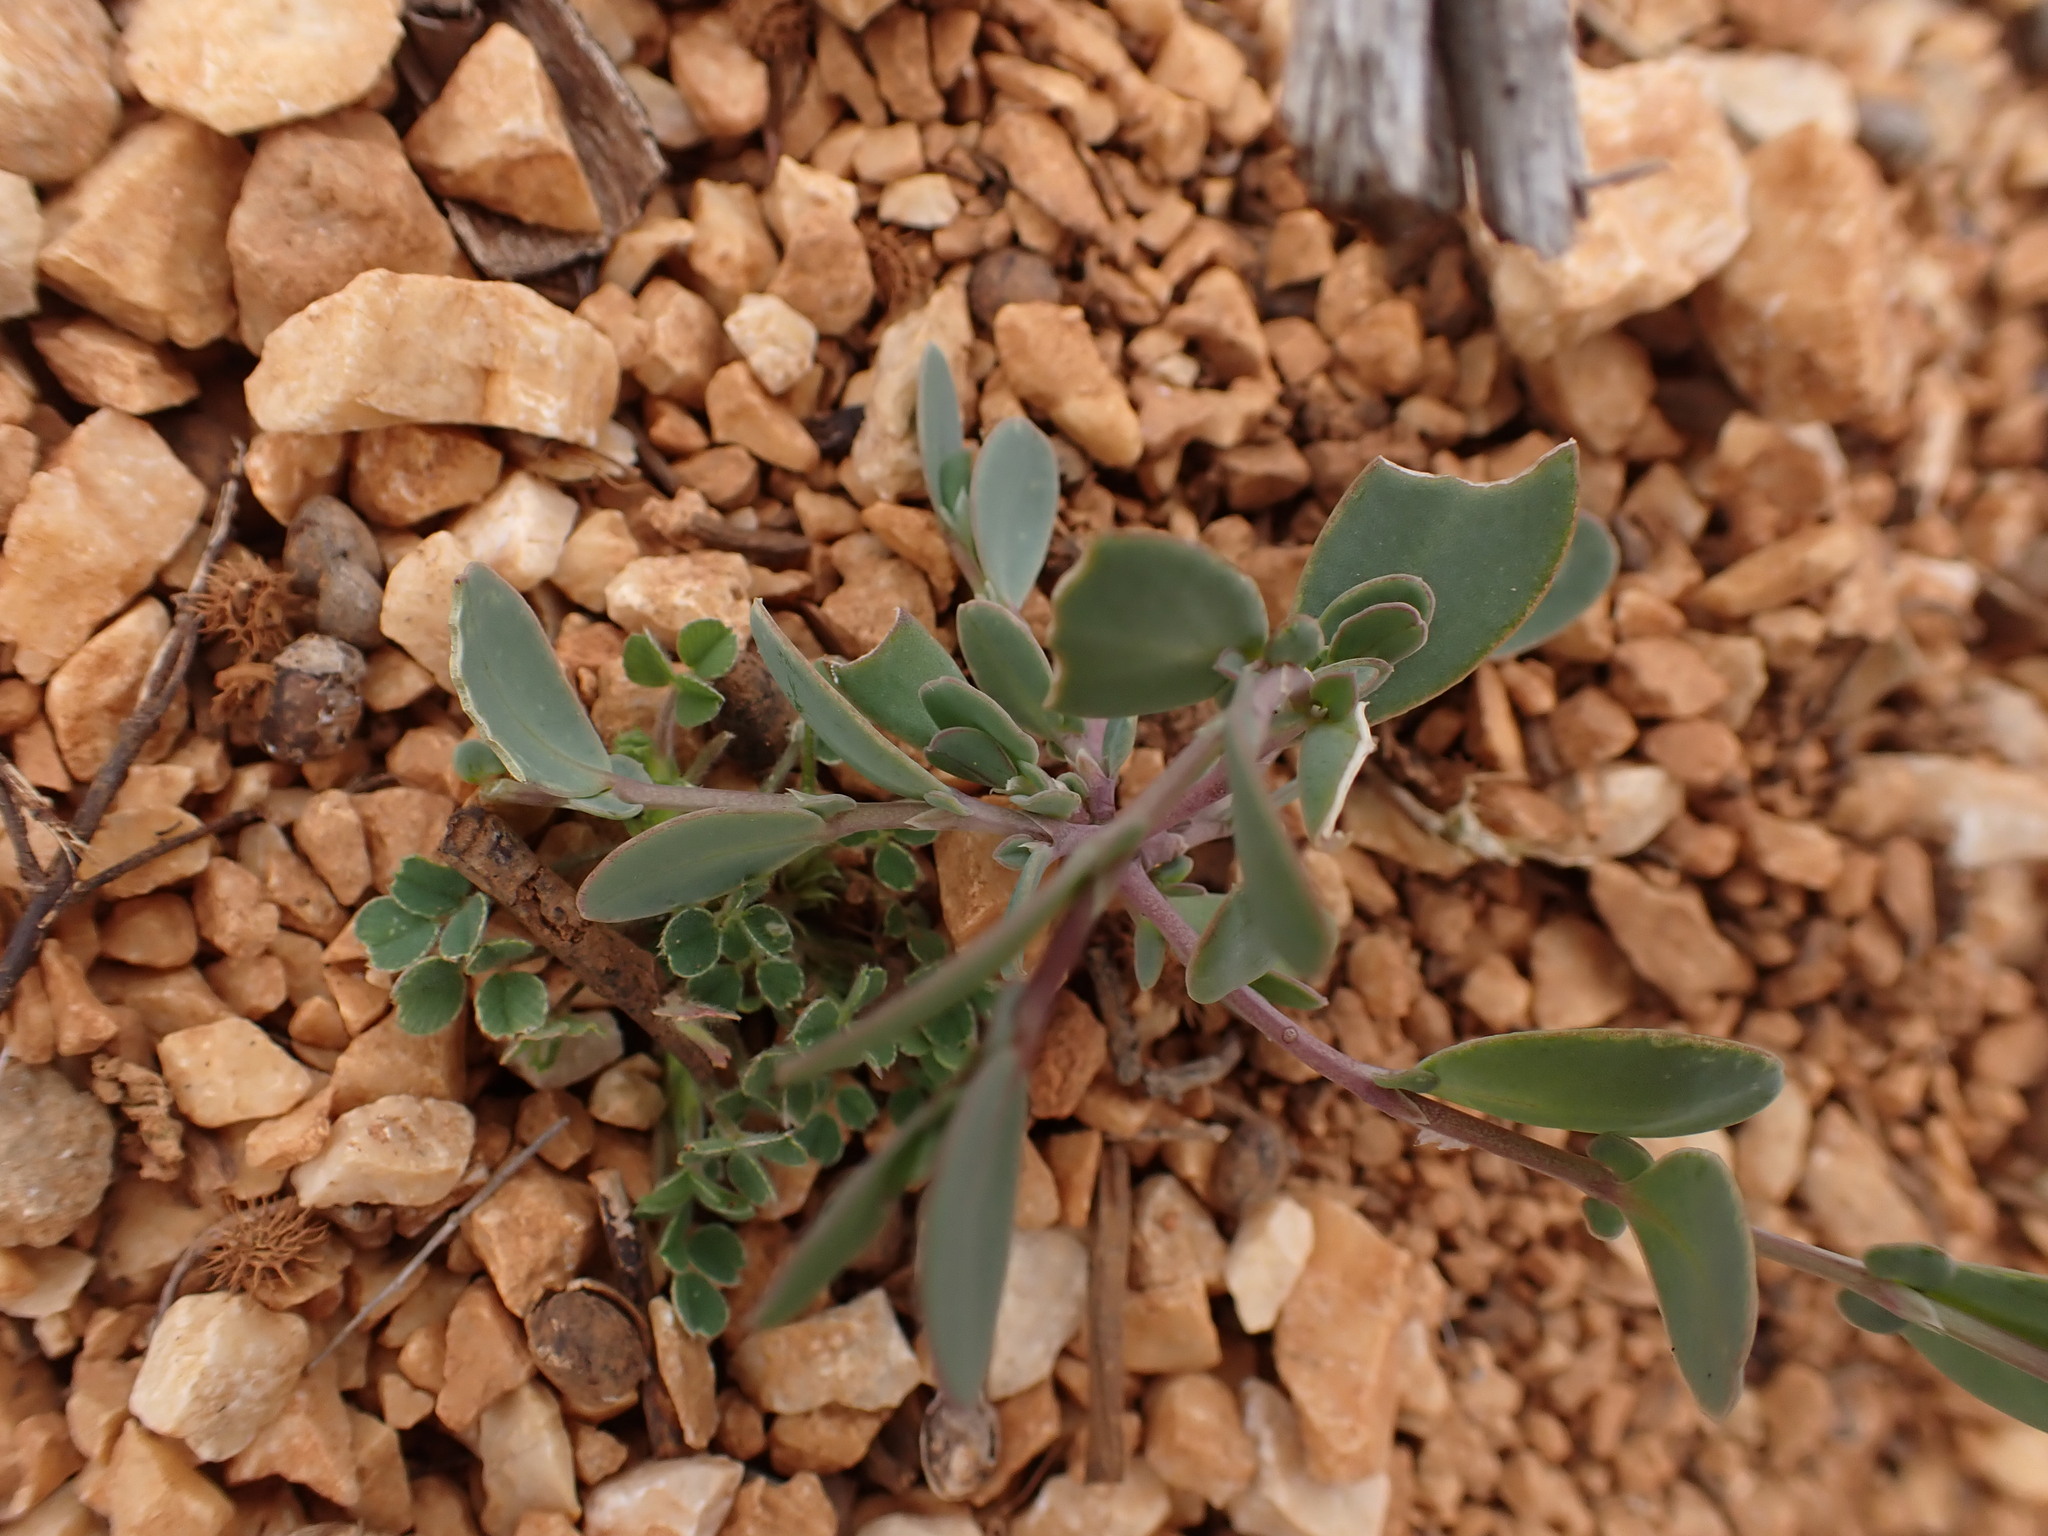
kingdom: Plantae
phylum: Tracheophyta
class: Magnoliopsida
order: Fabales
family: Fabaceae
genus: Coronilla
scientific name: Coronilla scorpioides
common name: Annual scorpion-vetch
